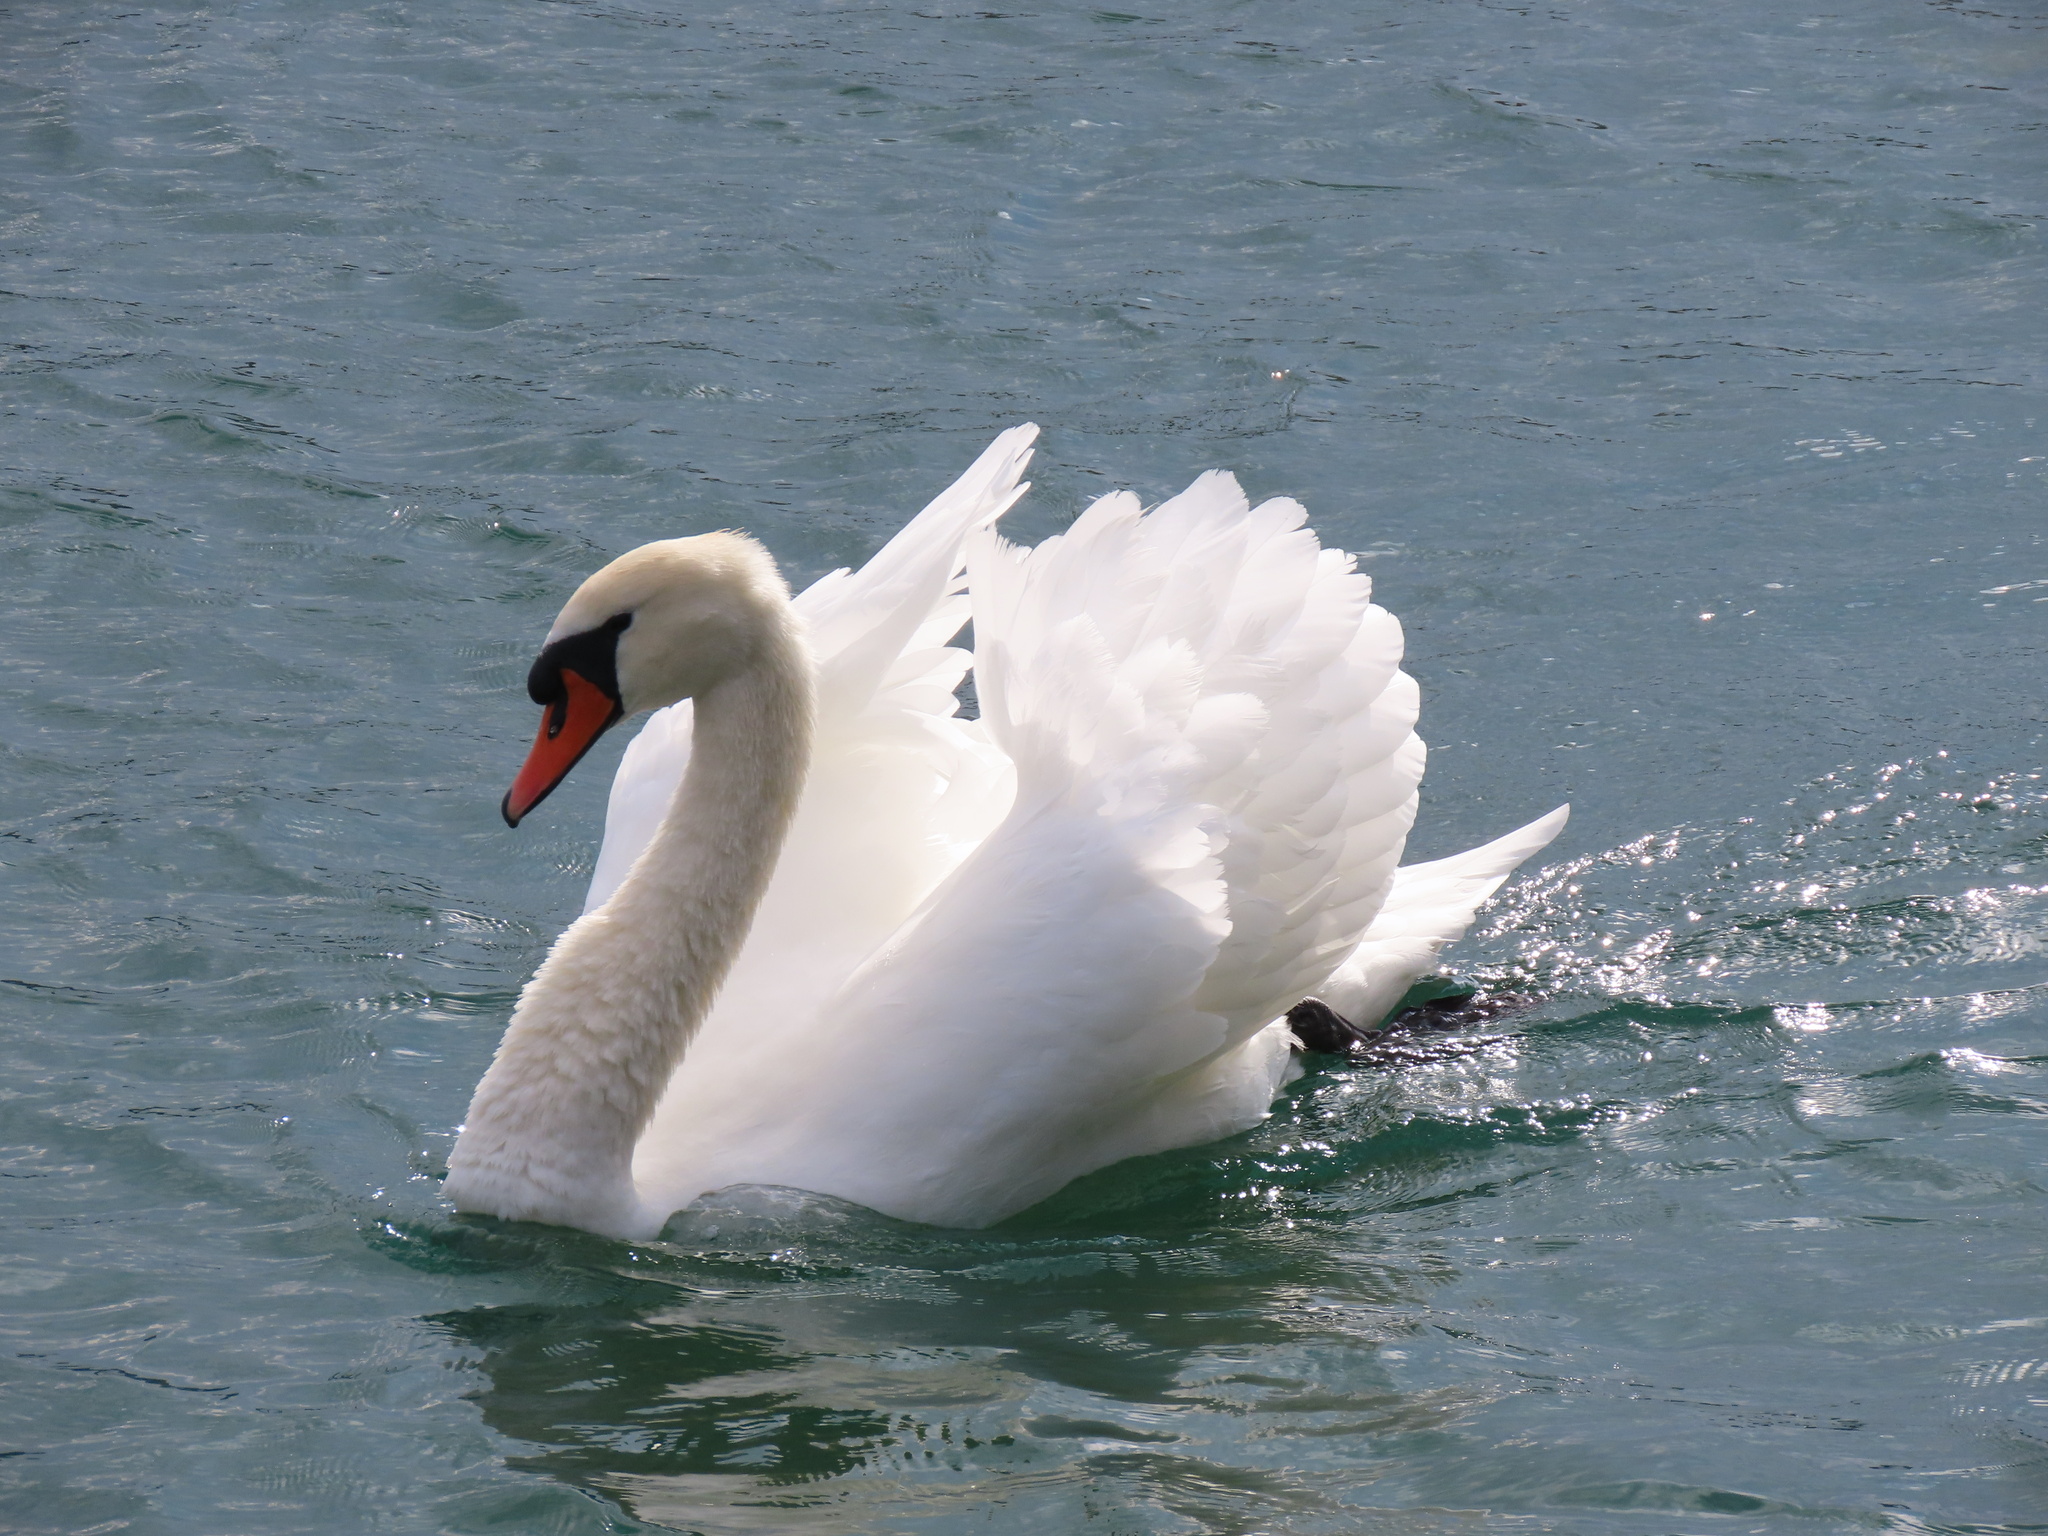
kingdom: Animalia
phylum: Chordata
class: Aves
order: Anseriformes
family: Anatidae
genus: Cygnus
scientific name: Cygnus olor
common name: Mute swan
